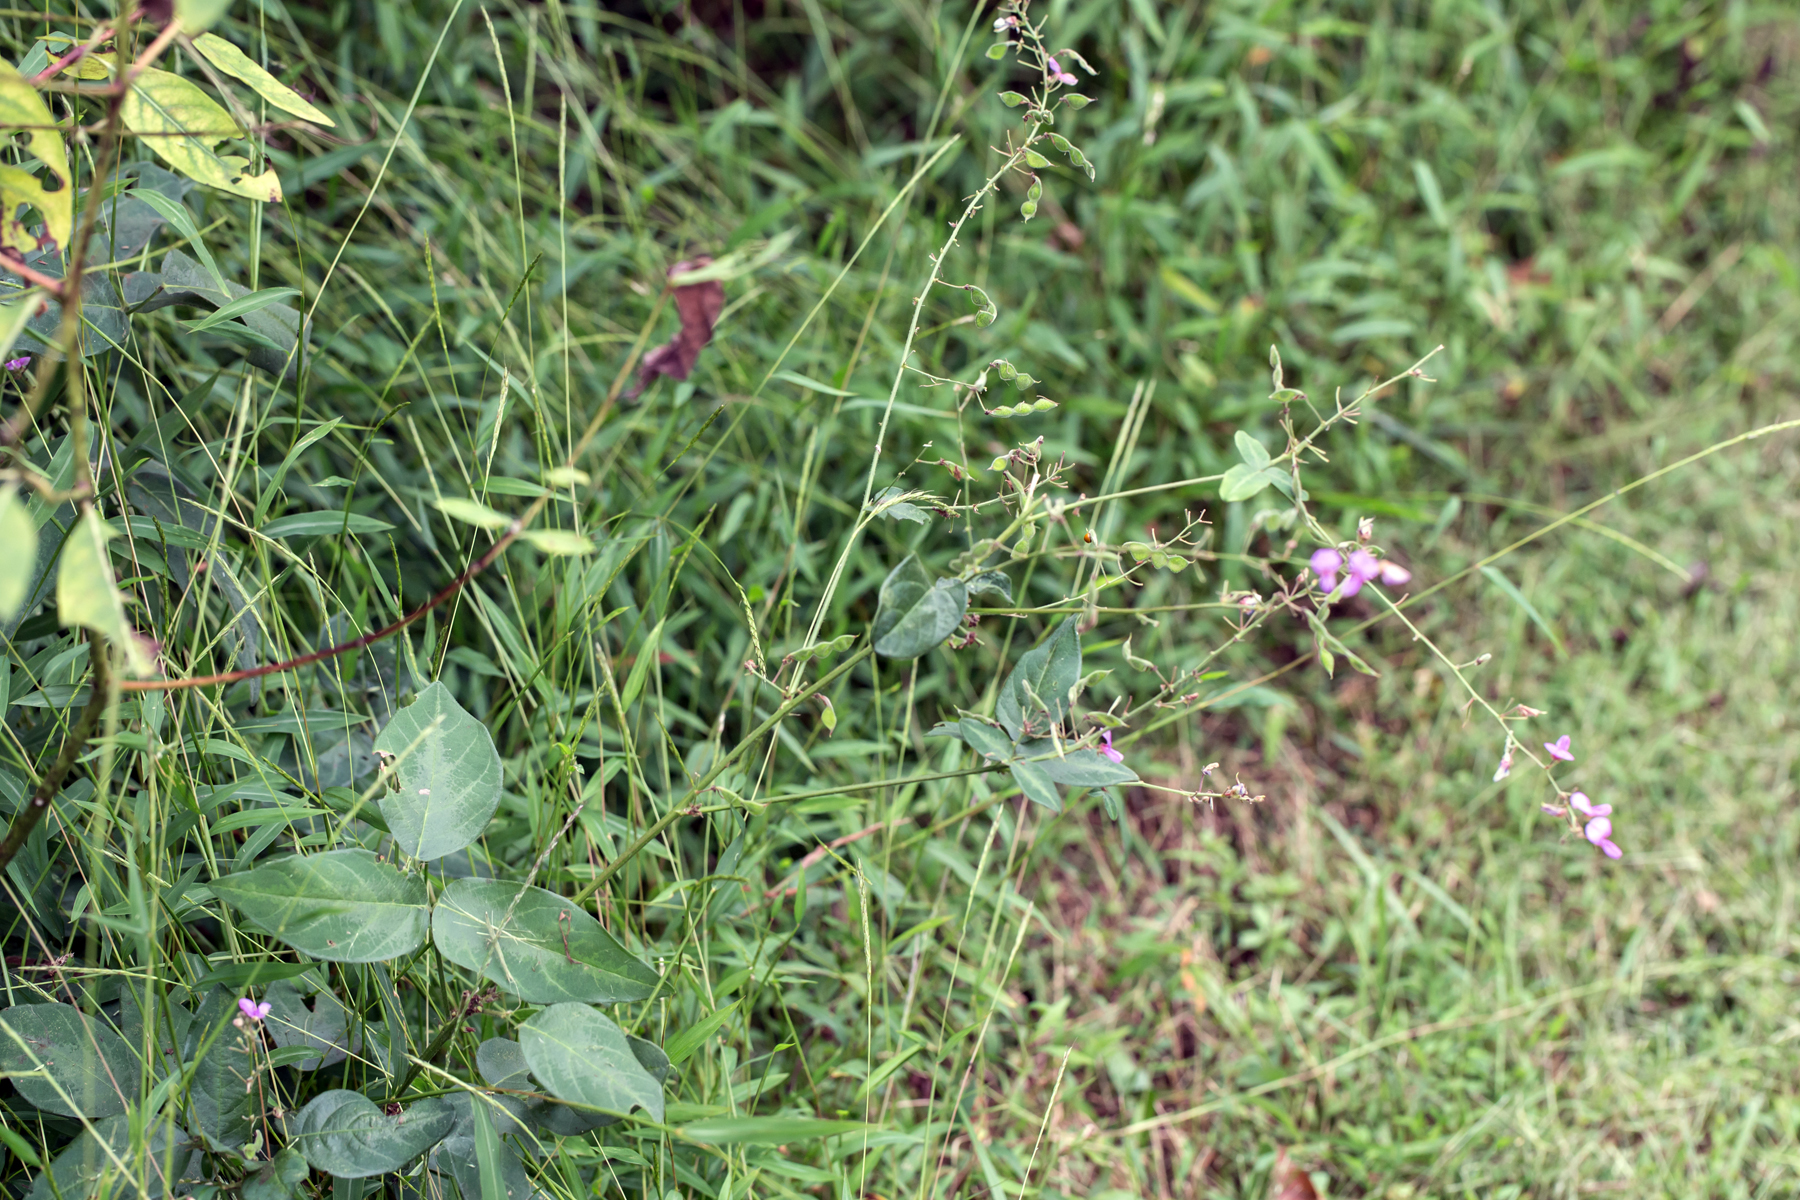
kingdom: Plantae
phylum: Tracheophyta
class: Magnoliopsida
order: Fabales
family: Fabaceae
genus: Desmodium
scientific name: Desmodium glabellum
